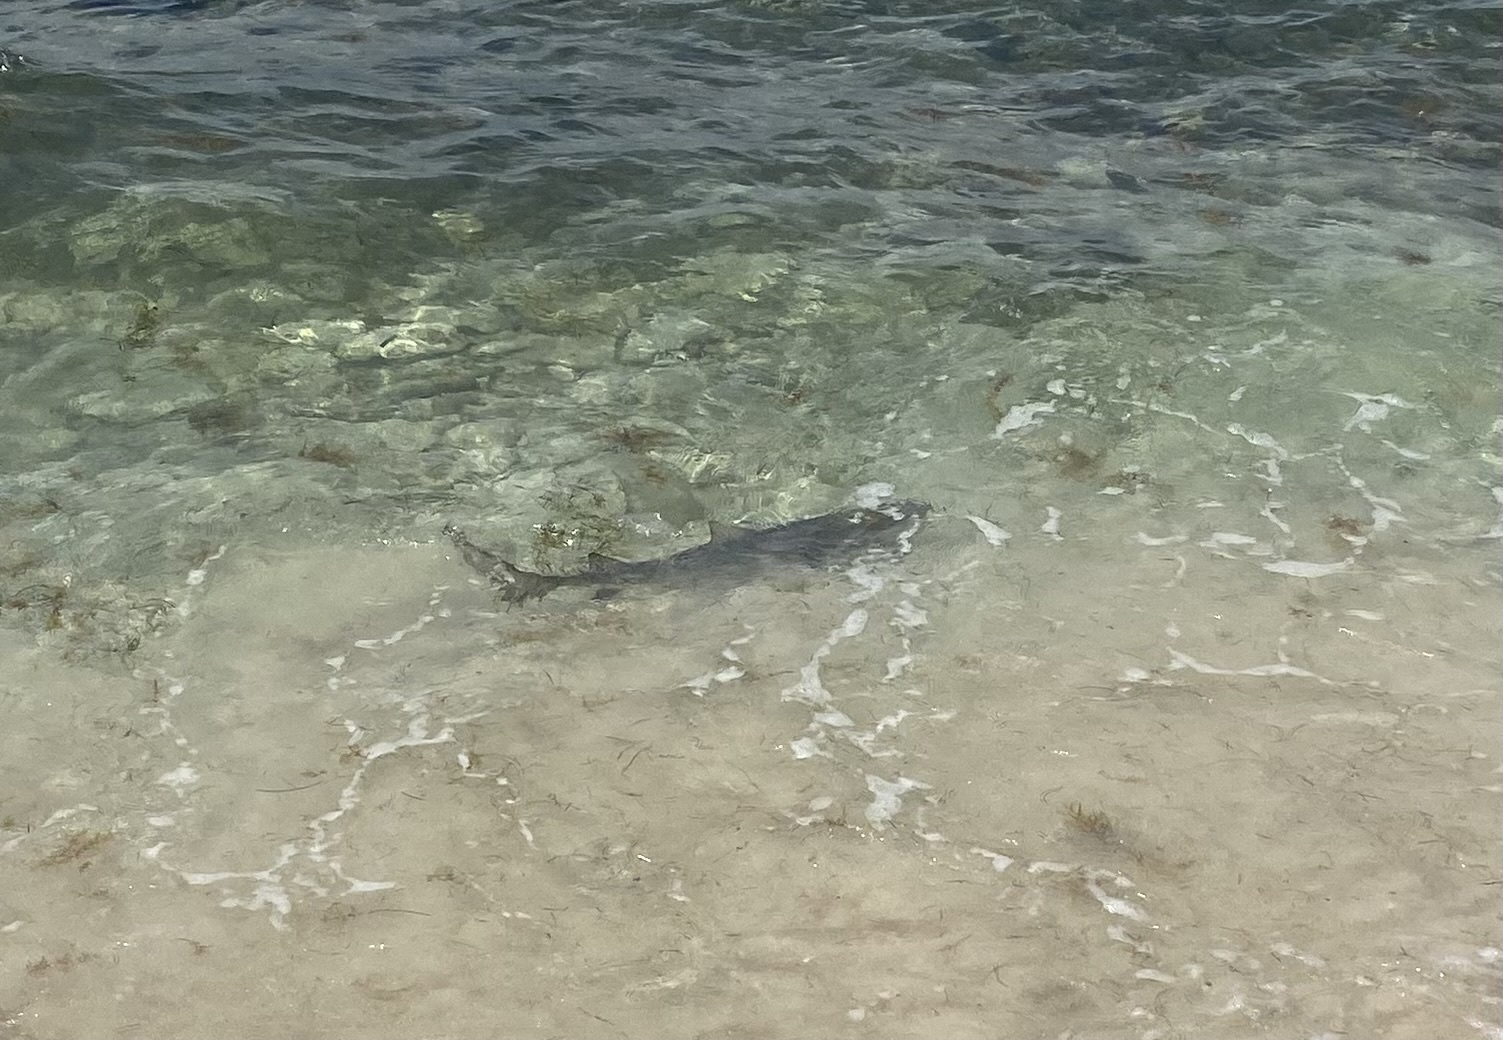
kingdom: Animalia
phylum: Chordata
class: Elasmobranchii
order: Carcharhiniformes
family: Carcharhinidae
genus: Negaprion
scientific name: Negaprion brevirostris
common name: Lemon shark
